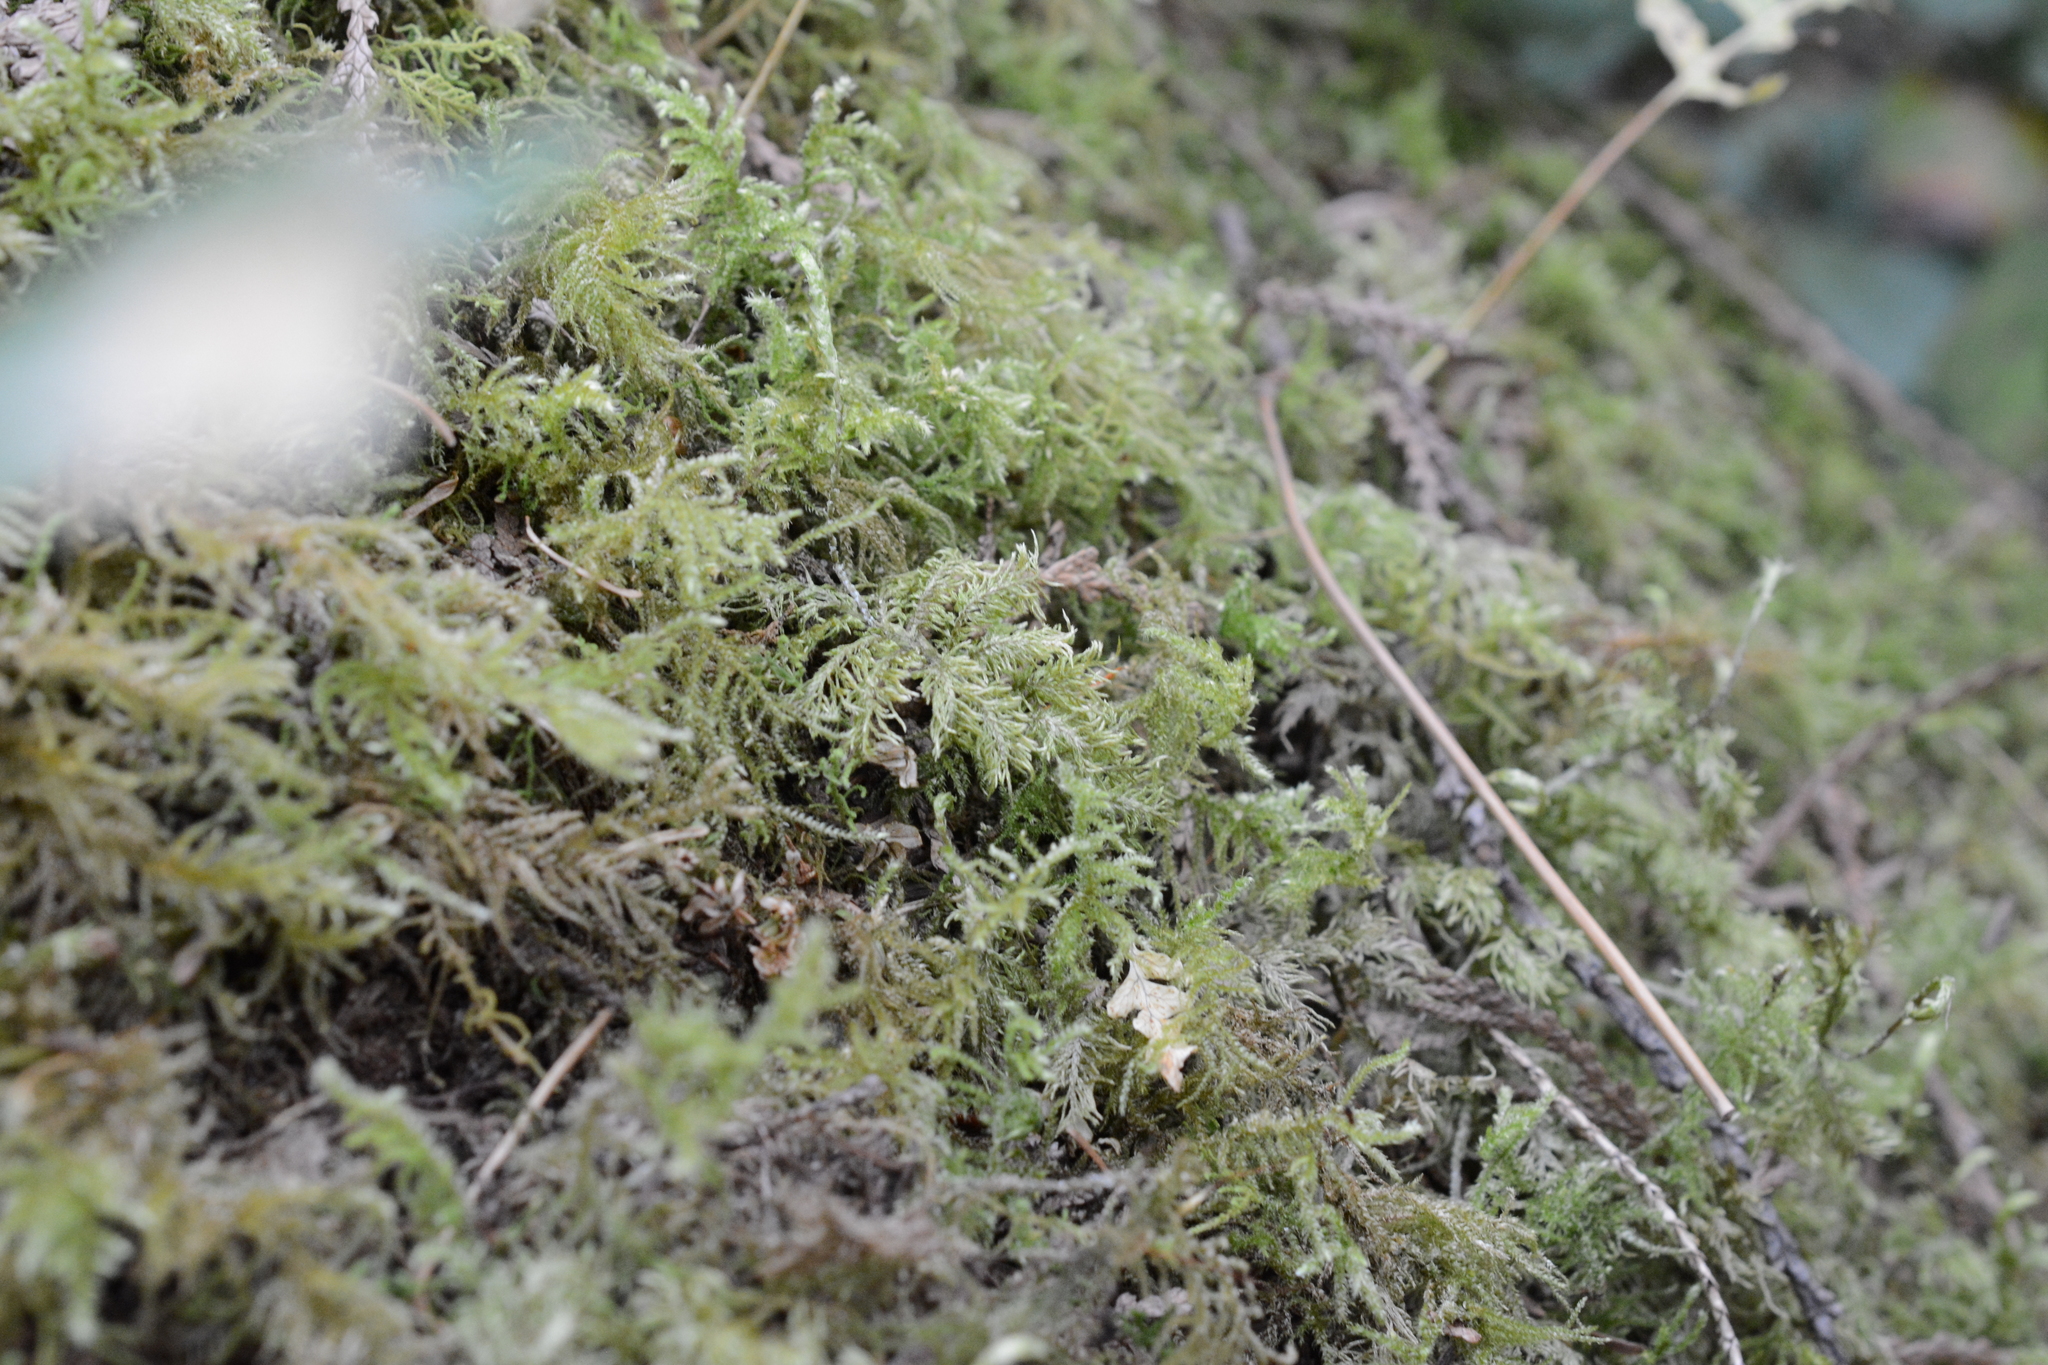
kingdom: Plantae
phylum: Bryophyta
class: Bryopsida
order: Hypnales
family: Hylocomiaceae
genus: Hylocomium
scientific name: Hylocomium splendens
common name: Stairstep moss
